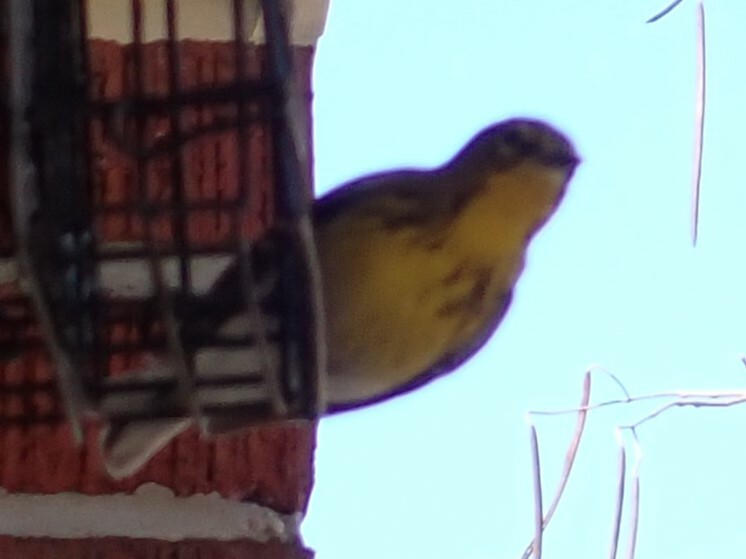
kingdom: Animalia
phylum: Chordata
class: Aves
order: Passeriformes
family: Parulidae
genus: Setophaga
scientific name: Setophaga pinus
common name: Pine warbler
